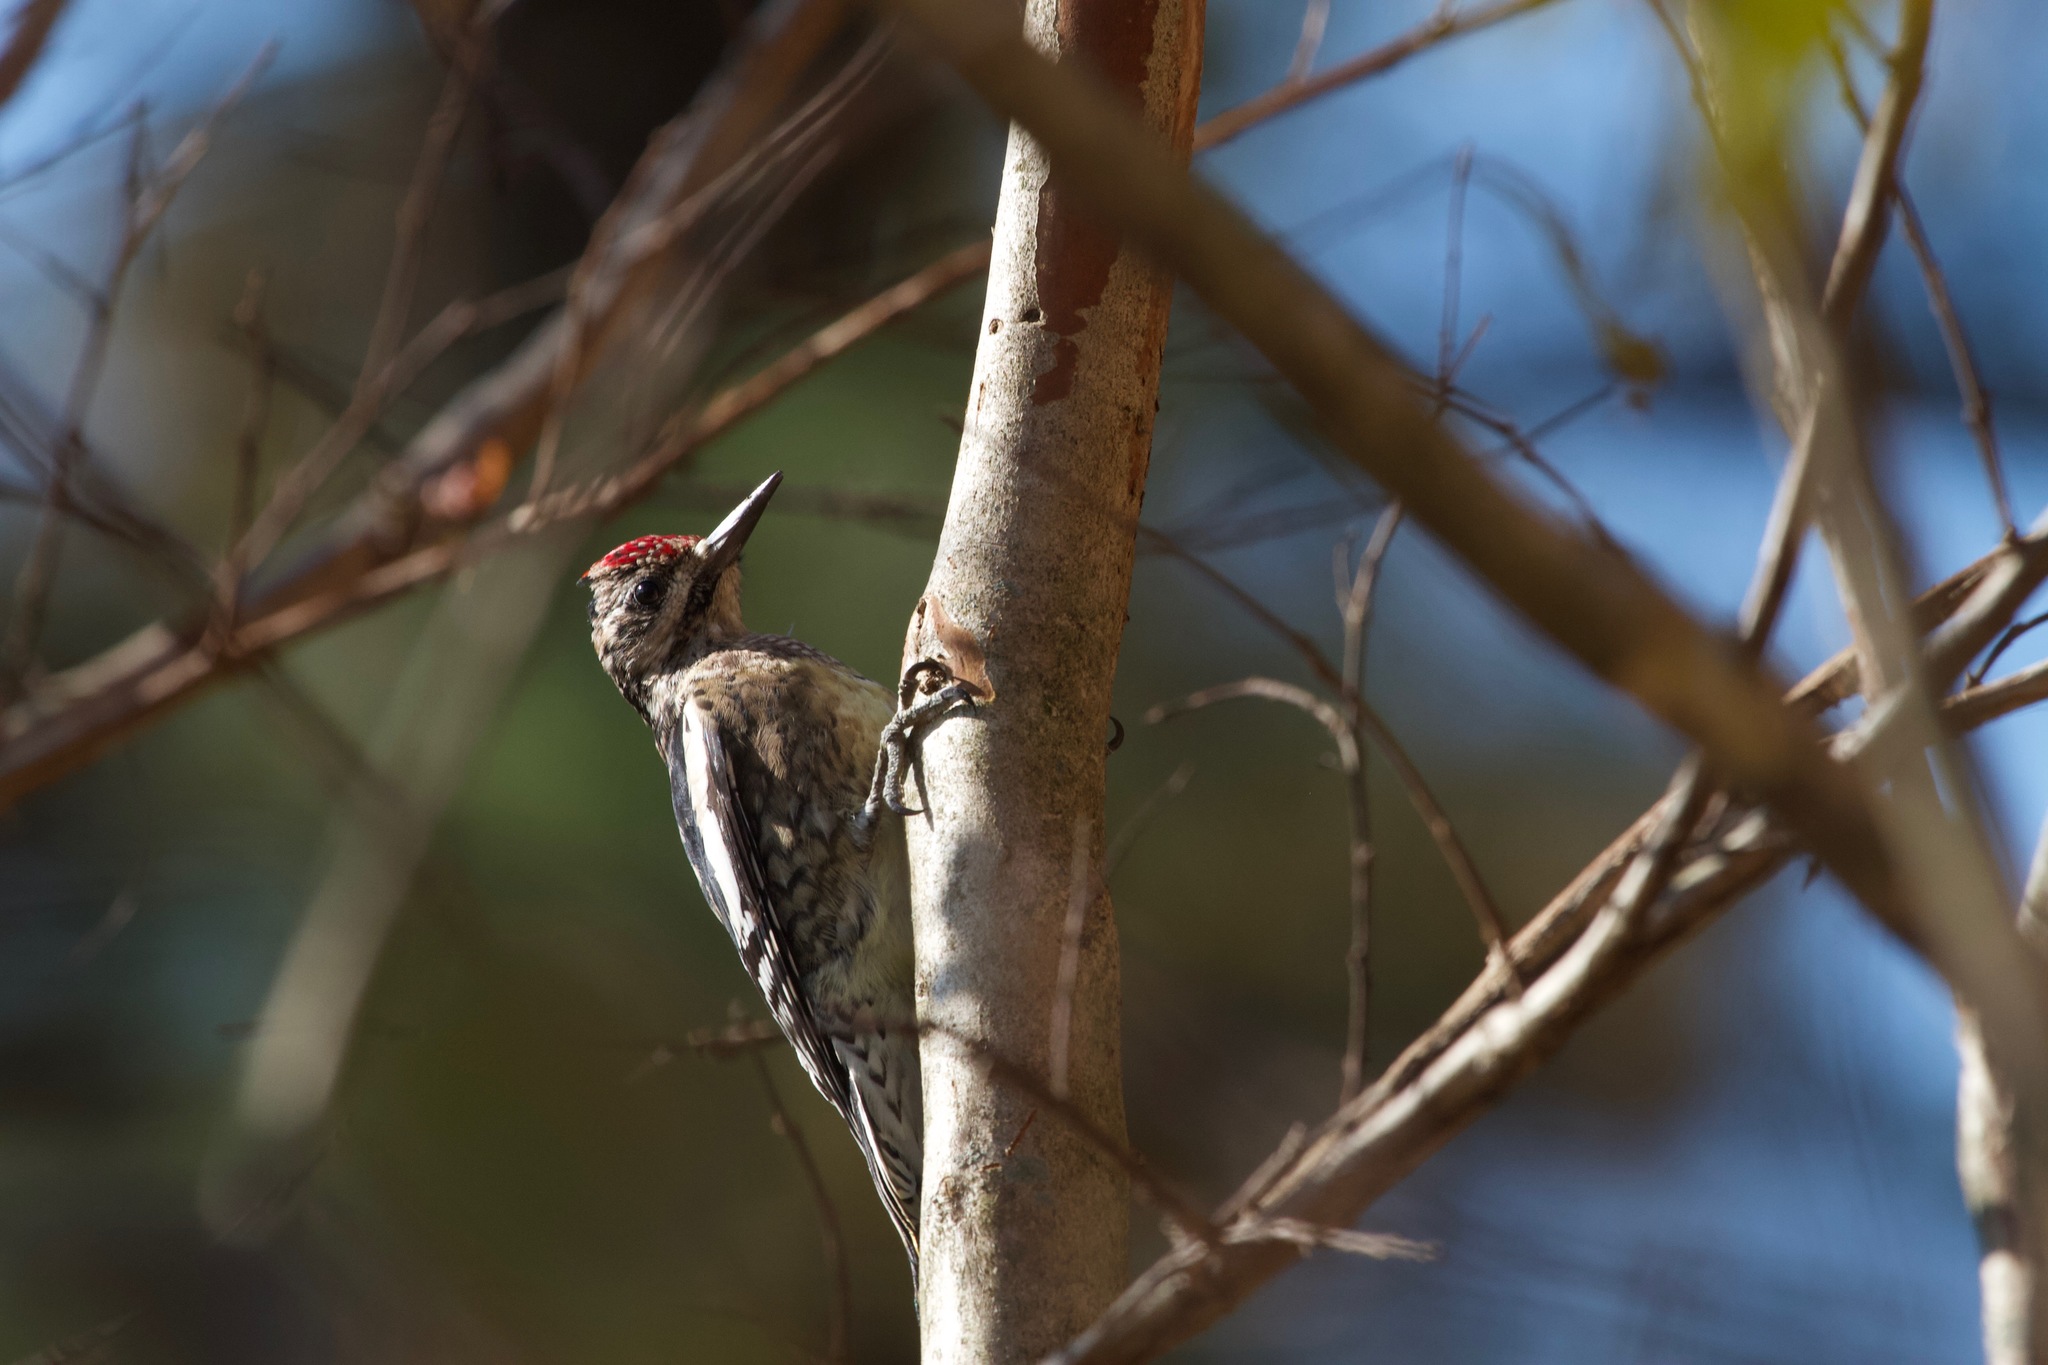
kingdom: Animalia
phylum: Chordata
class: Aves
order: Piciformes
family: Picidae
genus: Sphyrapicus
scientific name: Sphyrapicus varius
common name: Yellow-bellied sapsucker
